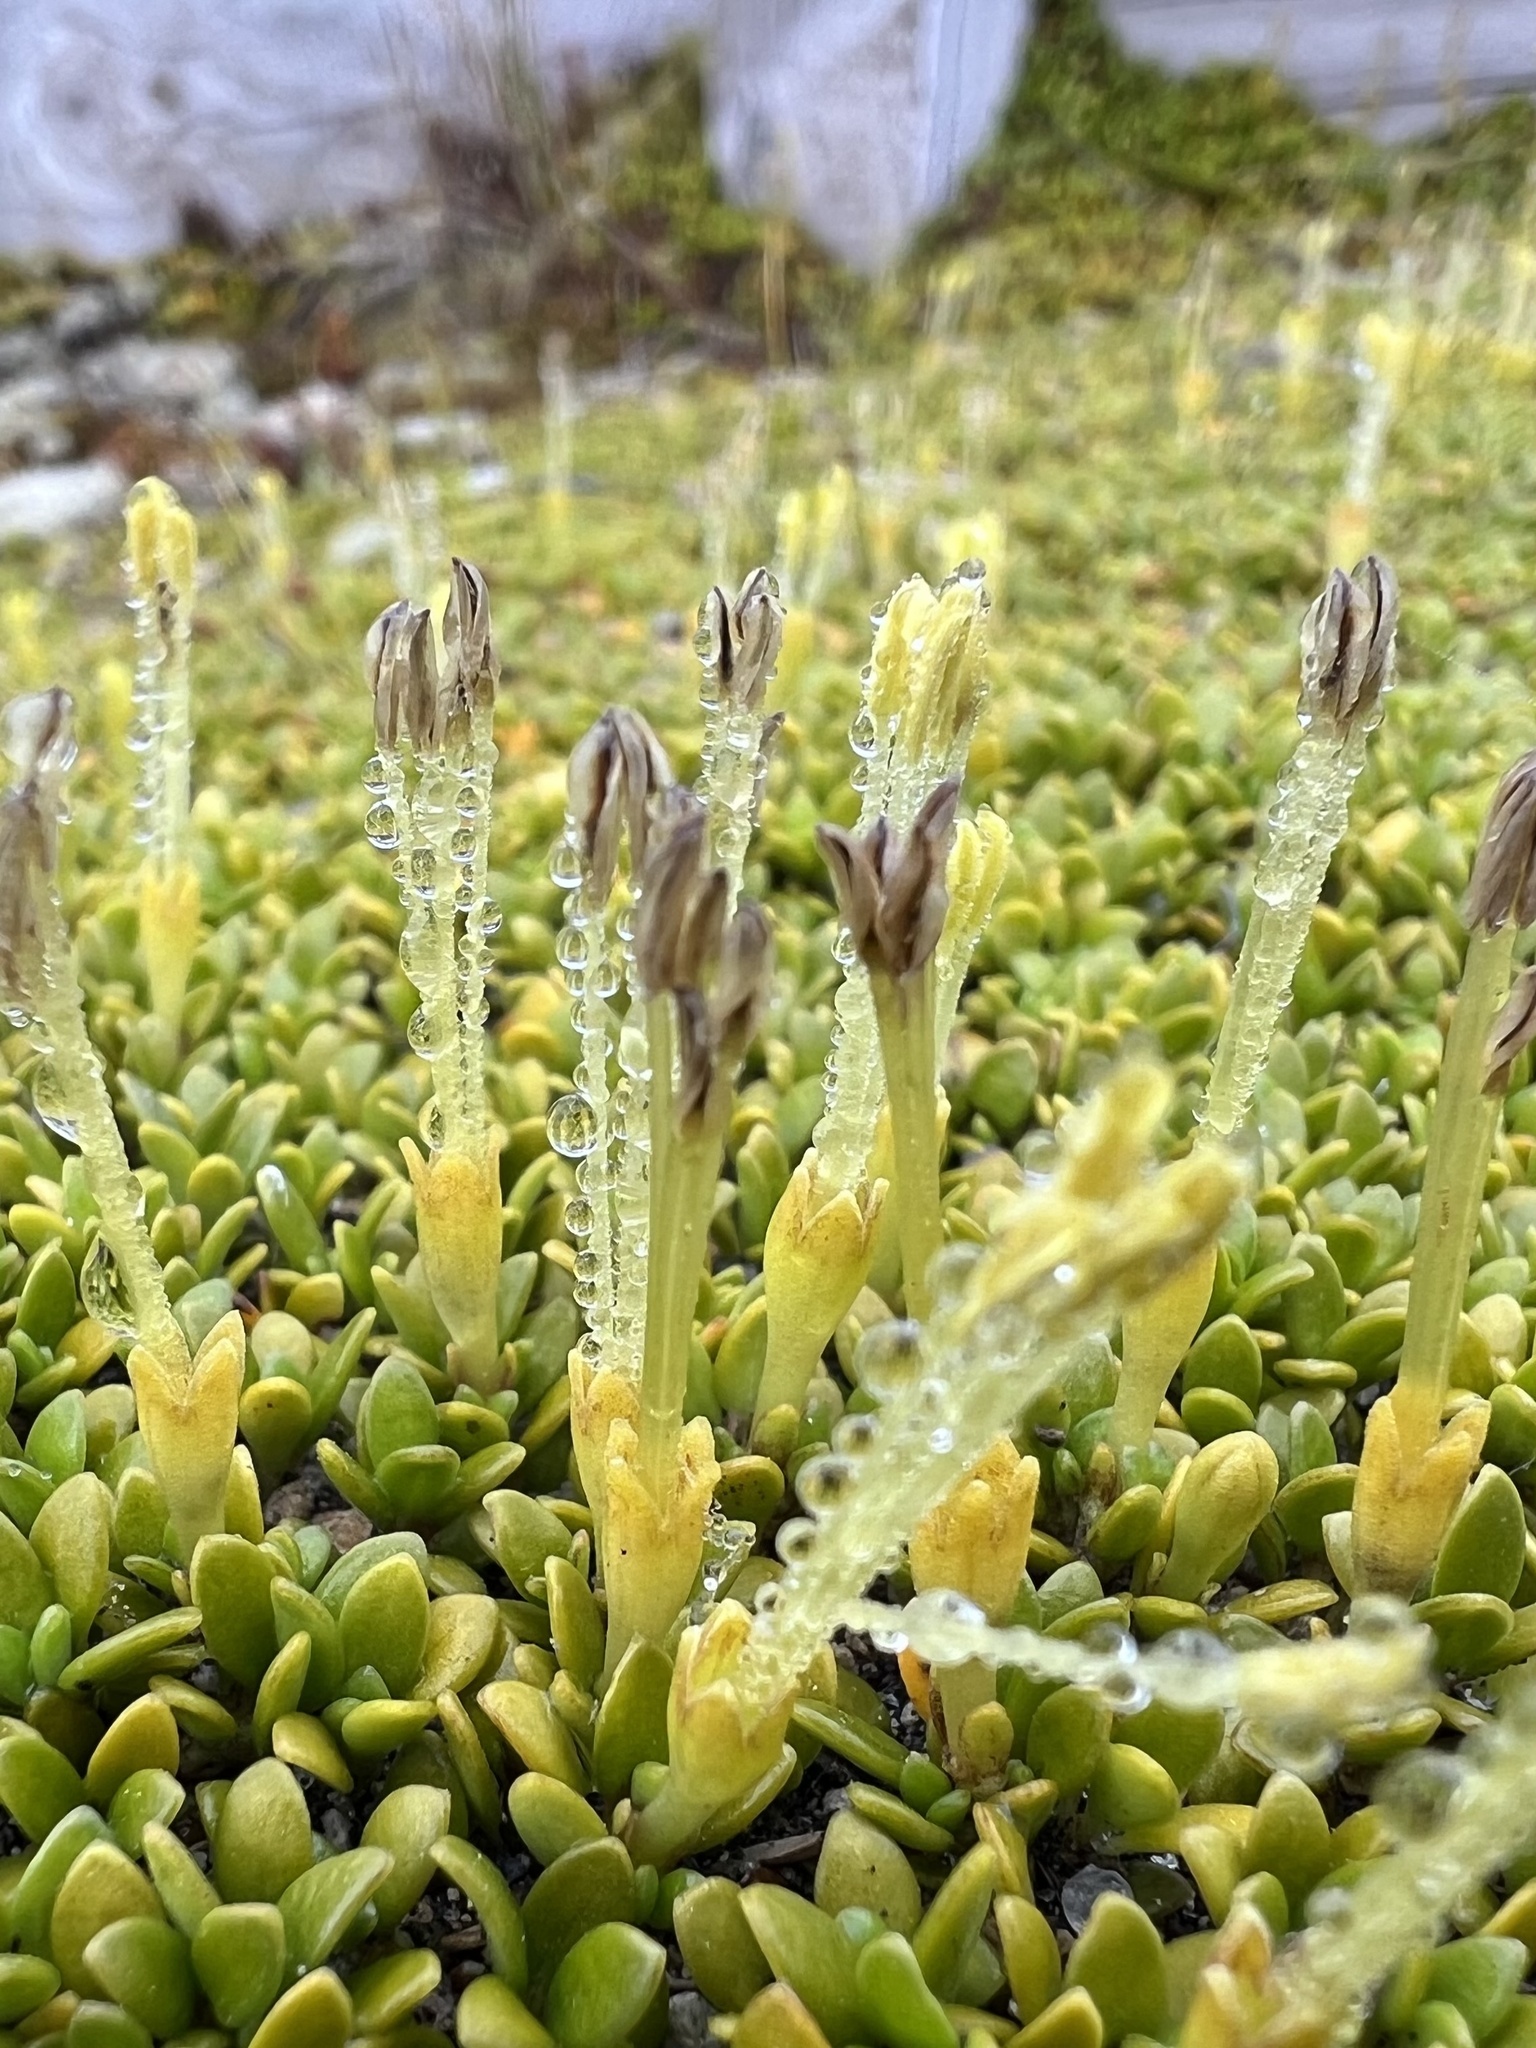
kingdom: Plantae
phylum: Tracheophyta
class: Magnoliopsida
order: Gentianales
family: Rubiaceae
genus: Coprosma
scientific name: Coprosma perpusilla
